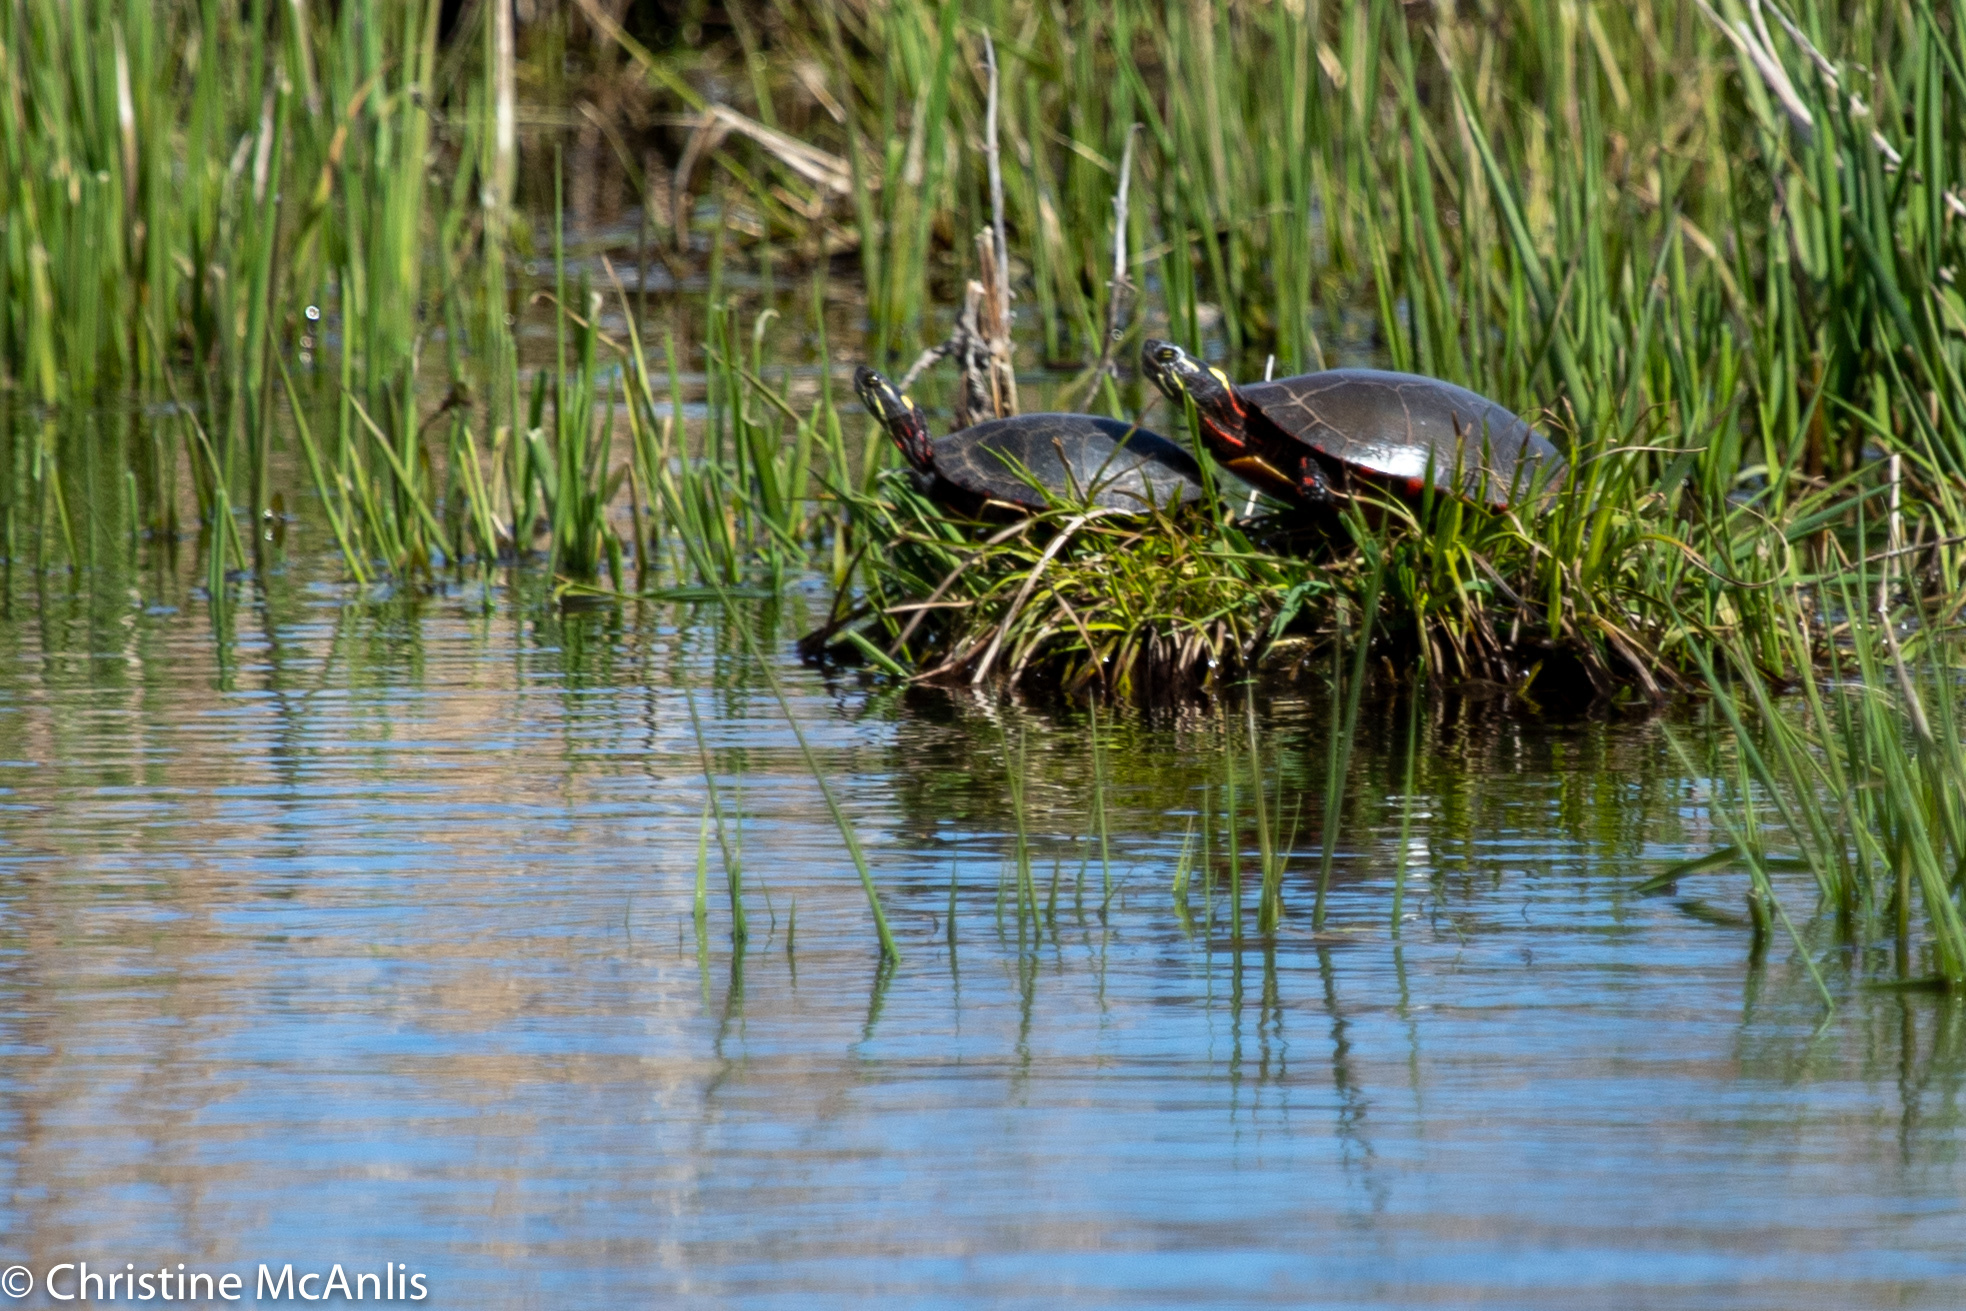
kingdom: Animalia
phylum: Chordata
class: Testudines
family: Emydidae
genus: Chrysemys
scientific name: Chrysemys picta
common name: Painted turtle
